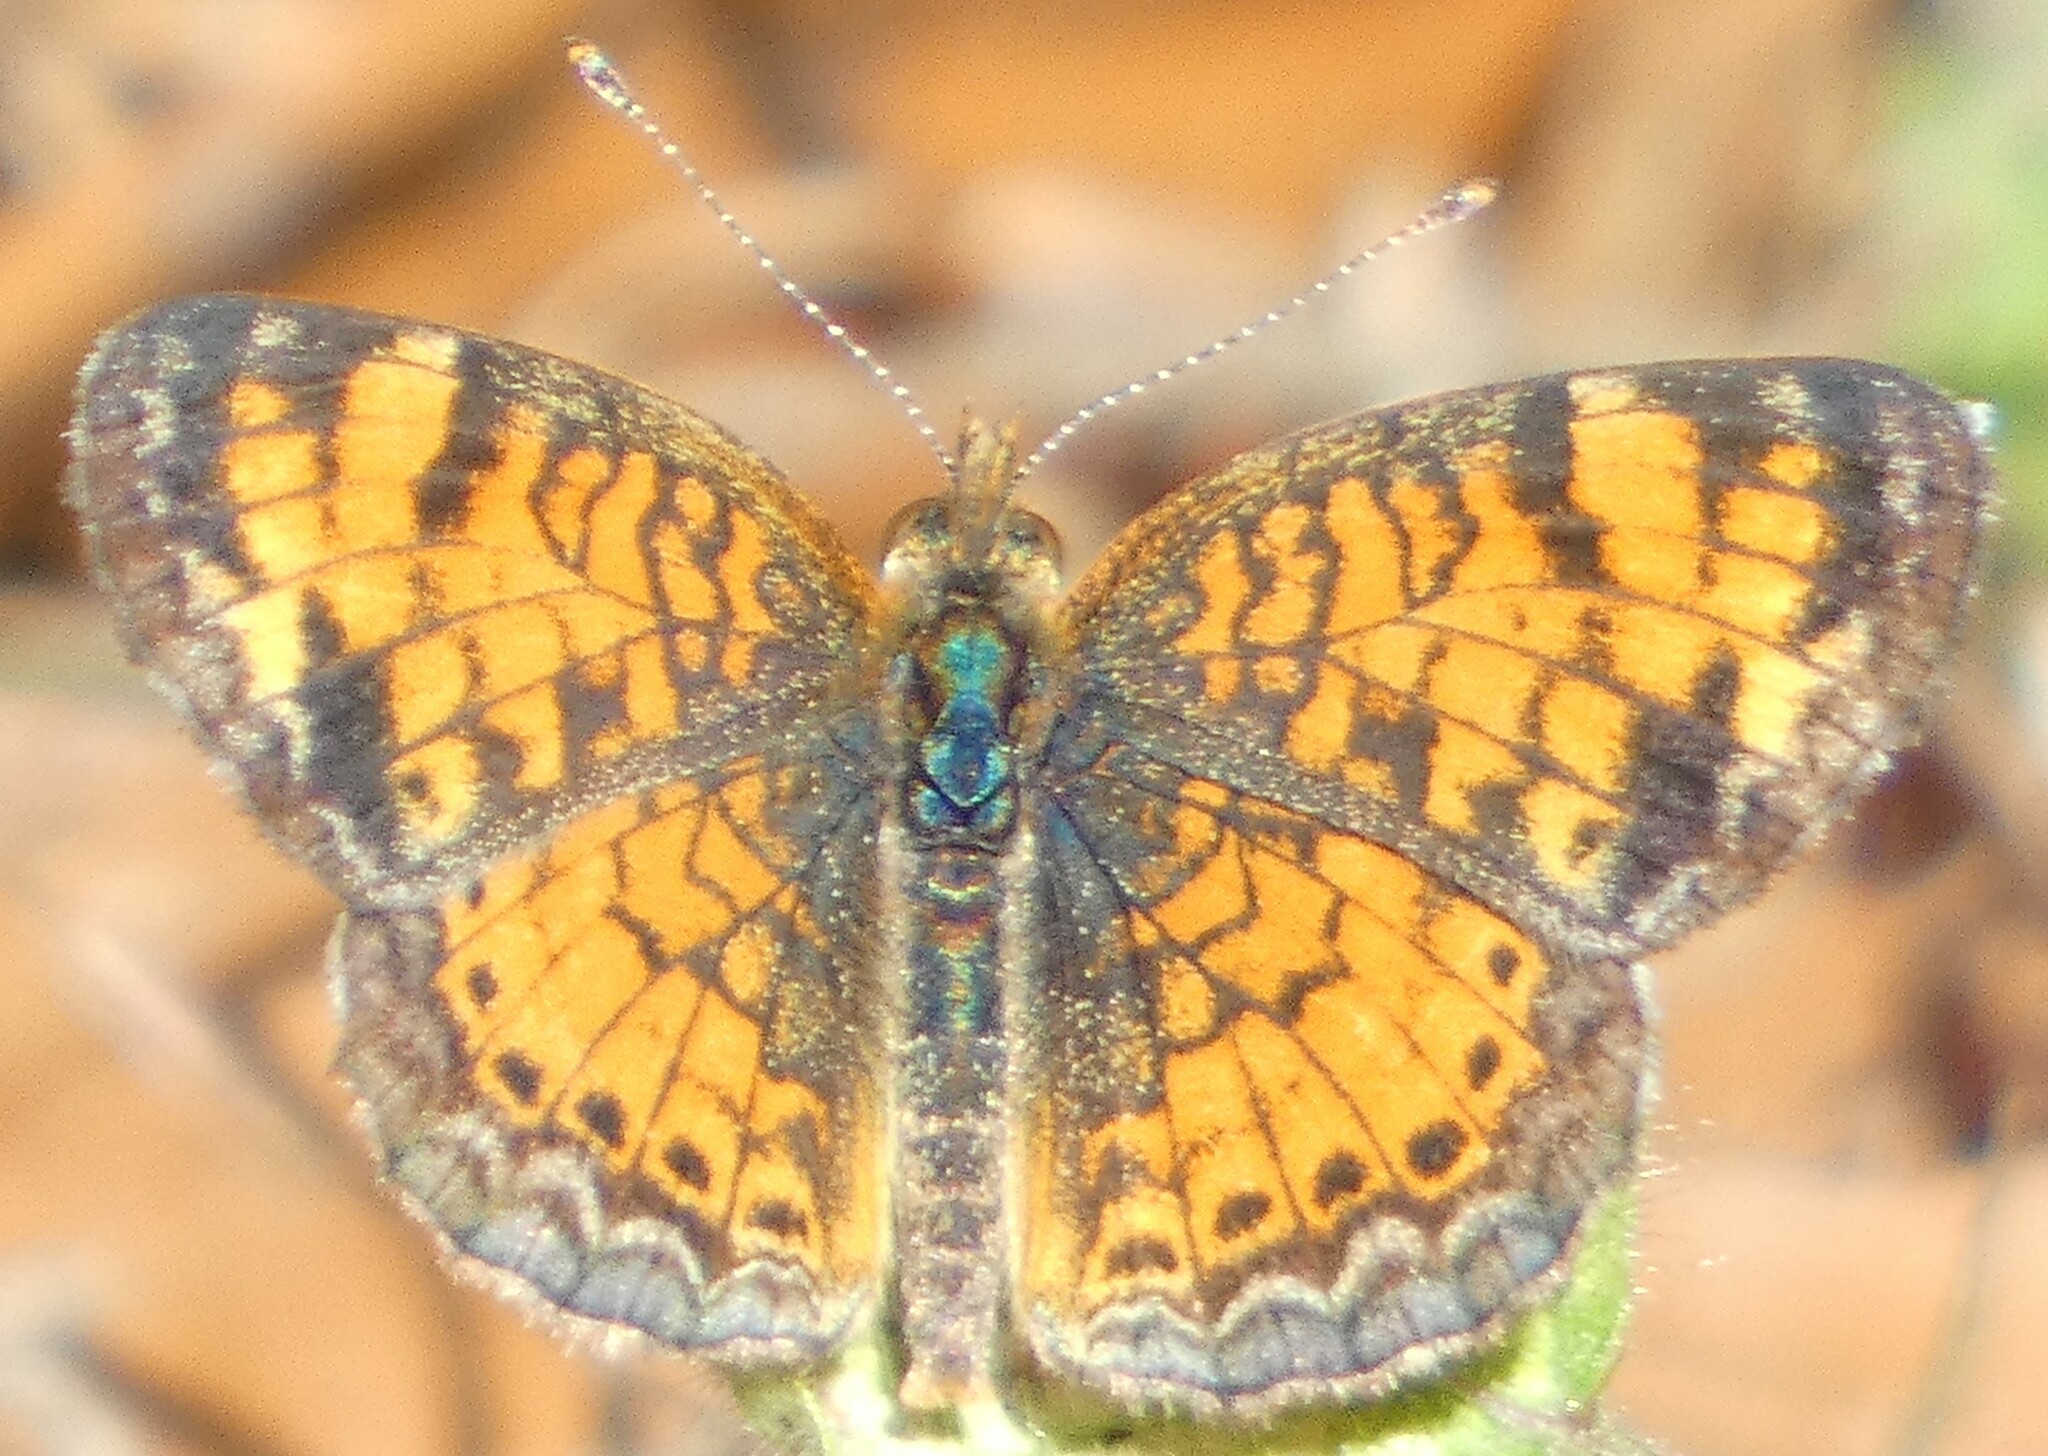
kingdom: Animalia
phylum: Arthropoda
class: Insecta
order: Lepidoptera
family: Nymphalidae
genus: Phyciodes
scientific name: Phyciodes tharos
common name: Pearl crescent
